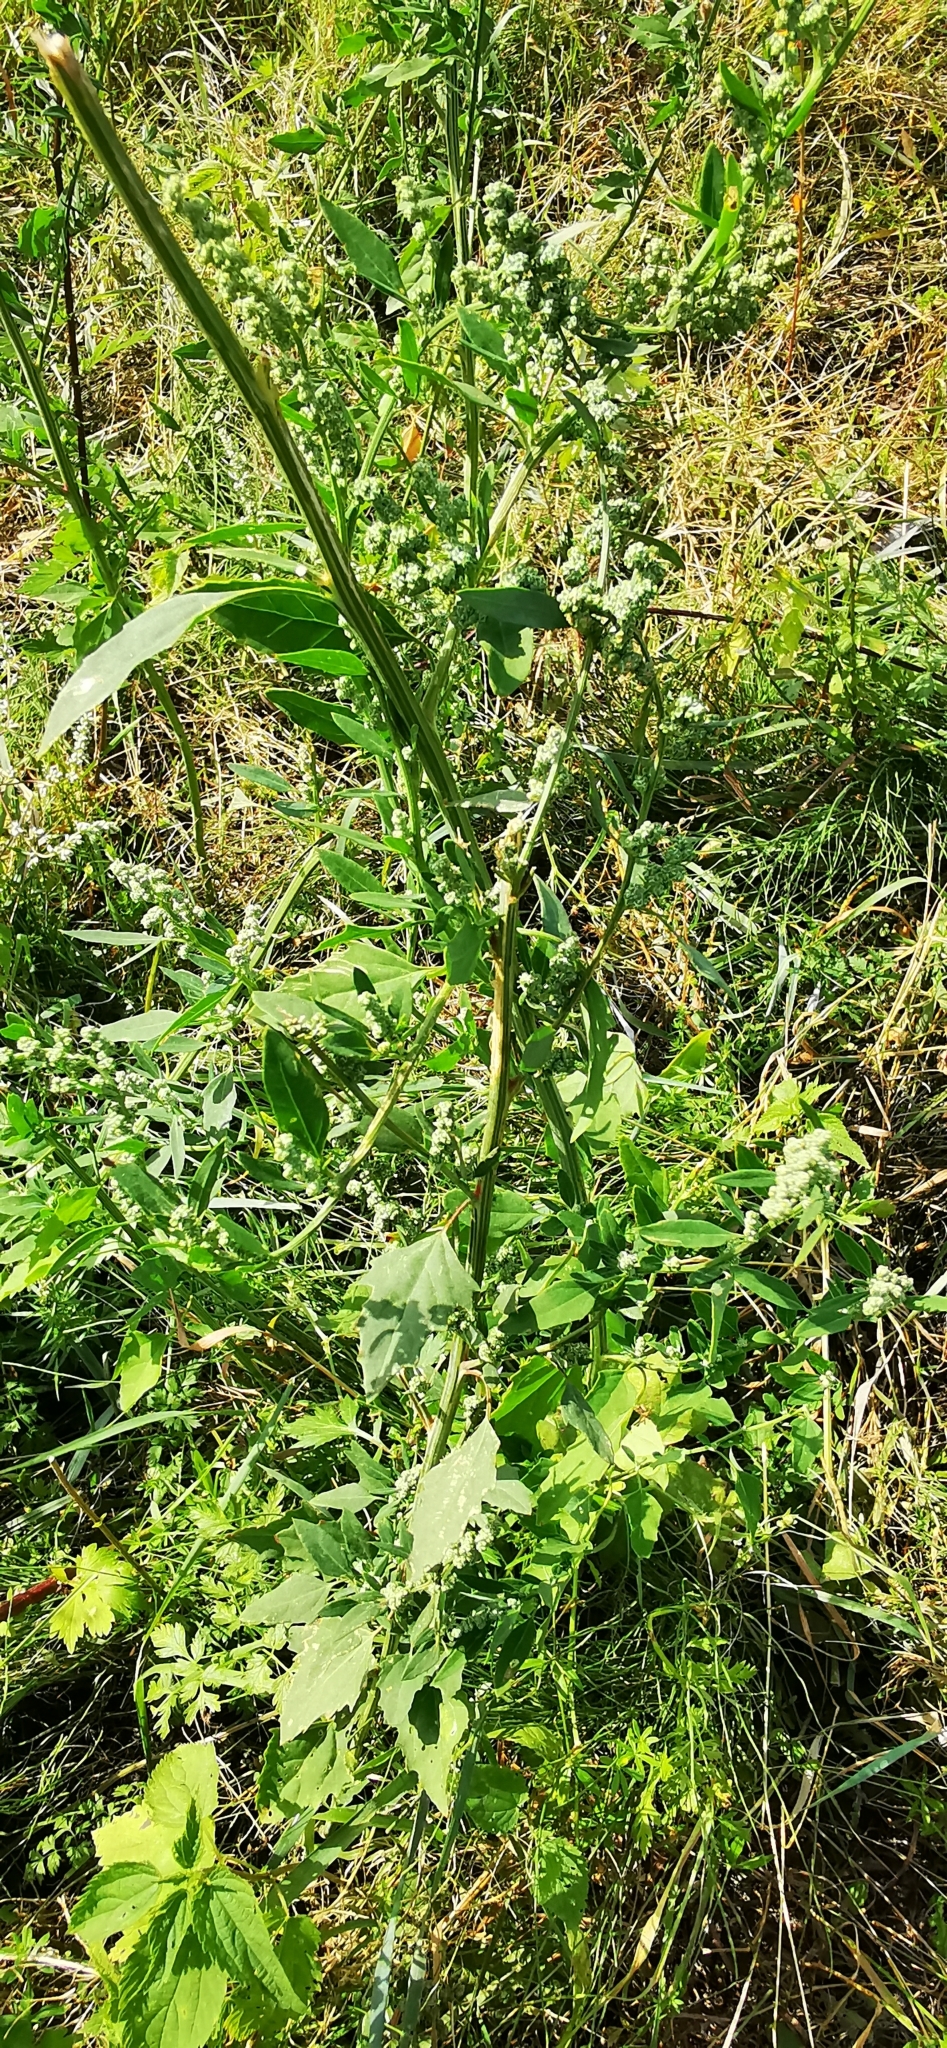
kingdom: Plantae
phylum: Tracheophyta
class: Magnoliopsida
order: Caryophyllales
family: Amaranthaceae
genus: Chenopodium
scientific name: Chenopodium album
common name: Fat-hen
